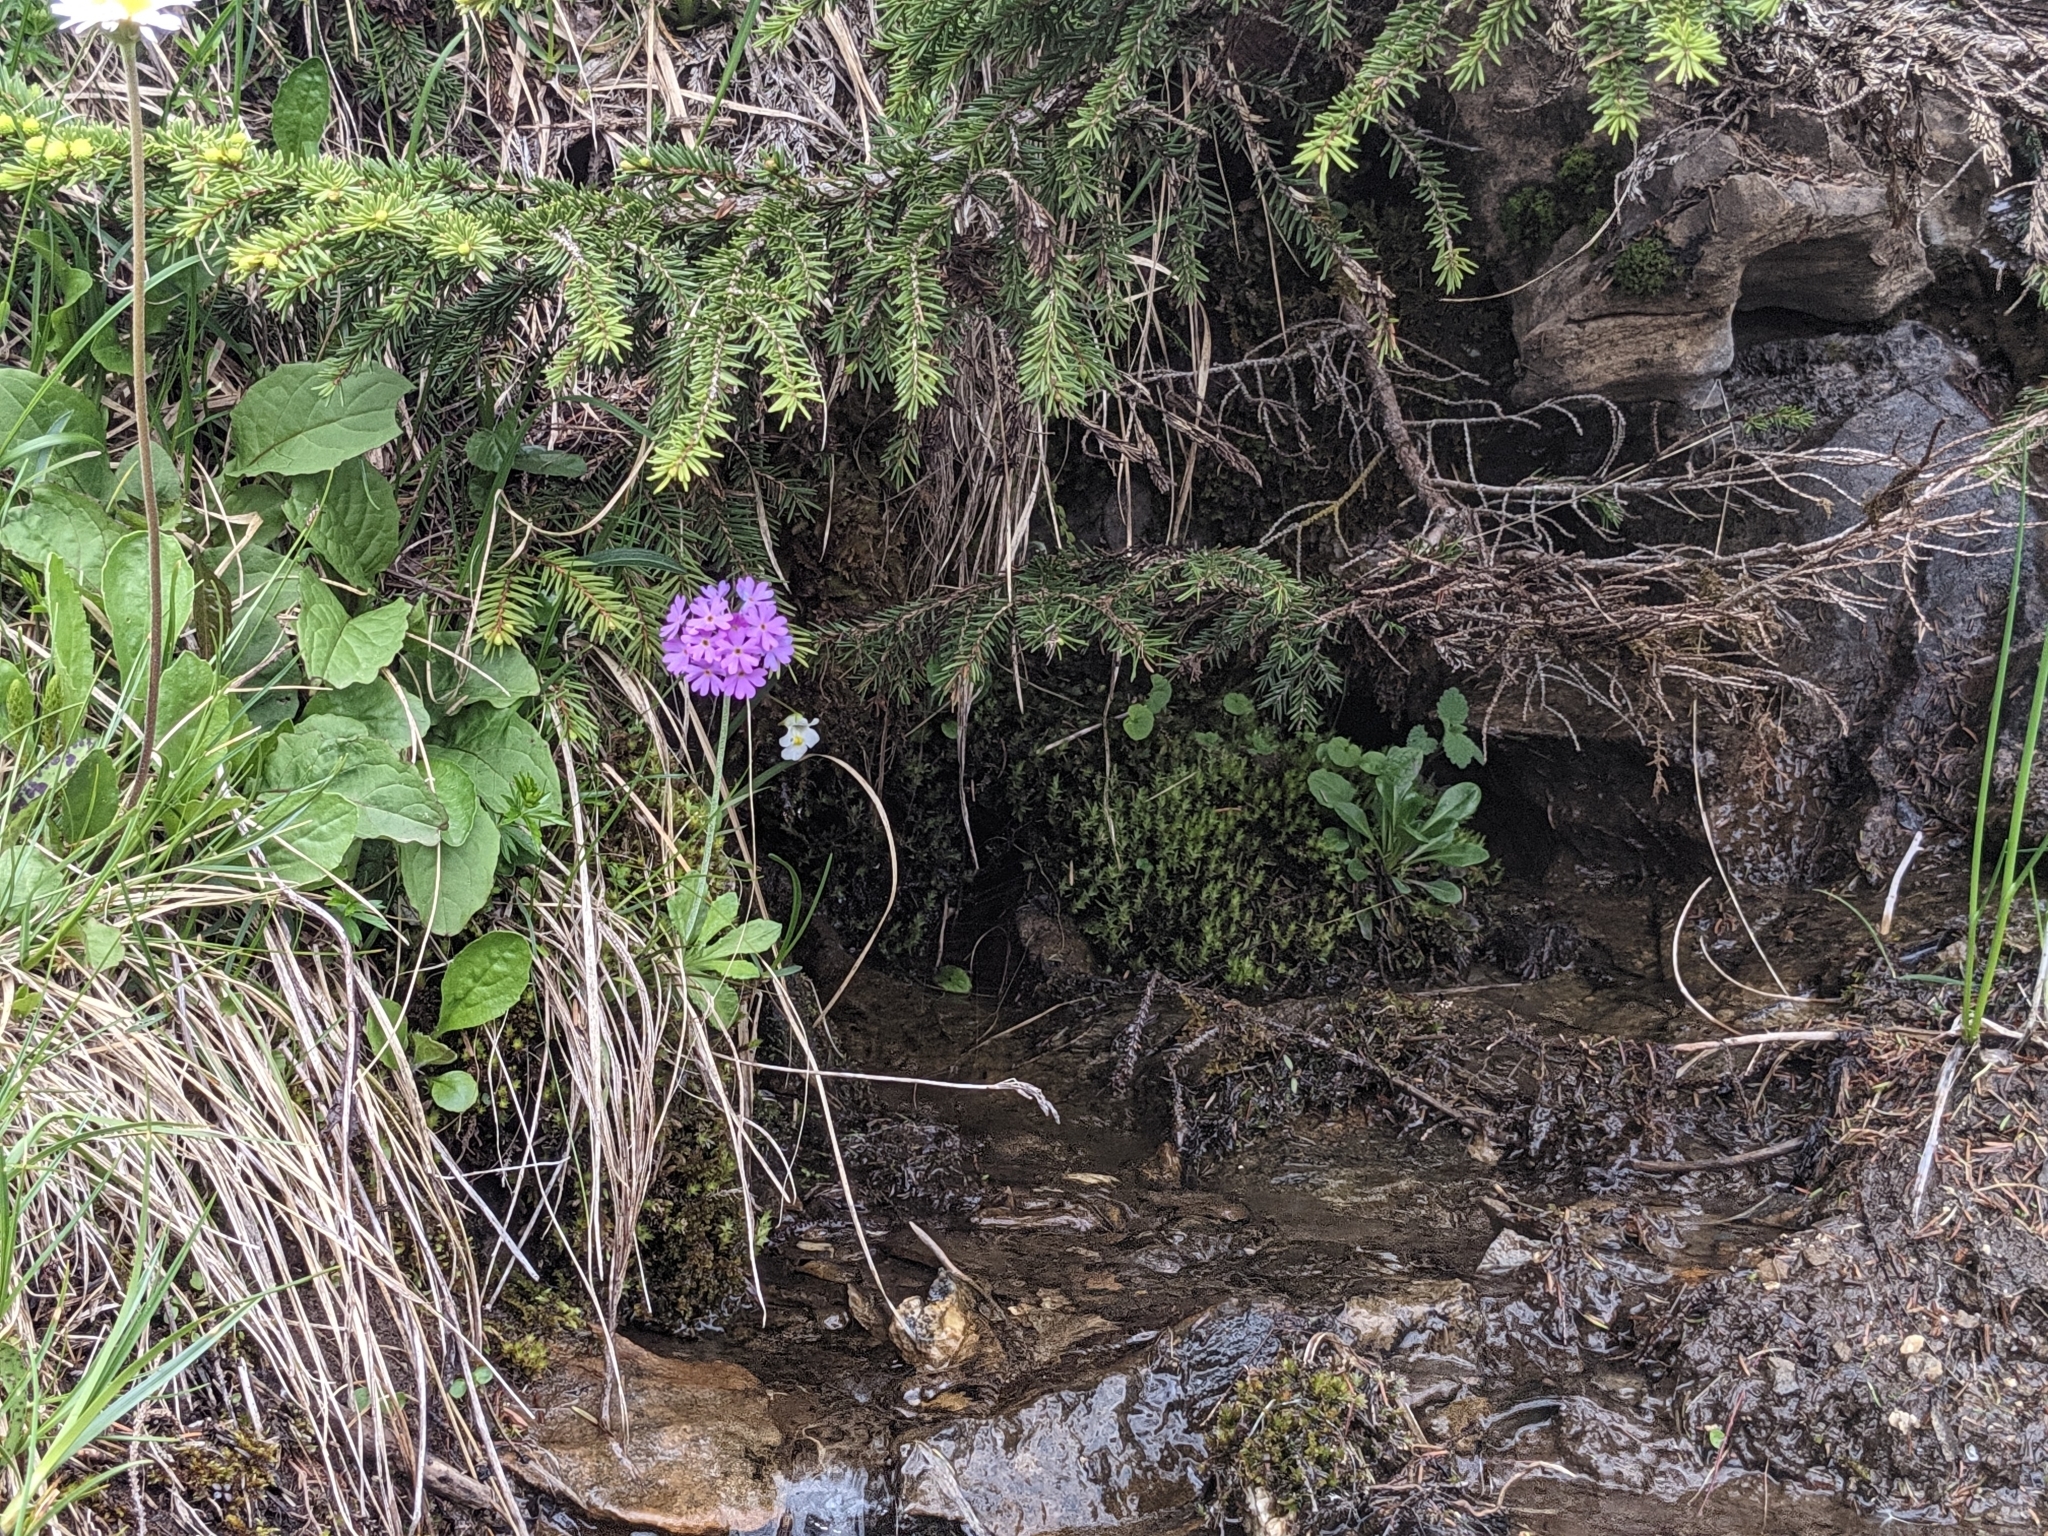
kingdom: Plantae
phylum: Tracheophyta
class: Magnoliopsida
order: Ericales
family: Primulaceae
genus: Primula
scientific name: Primula farinosa
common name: Bird's-eye primrose
